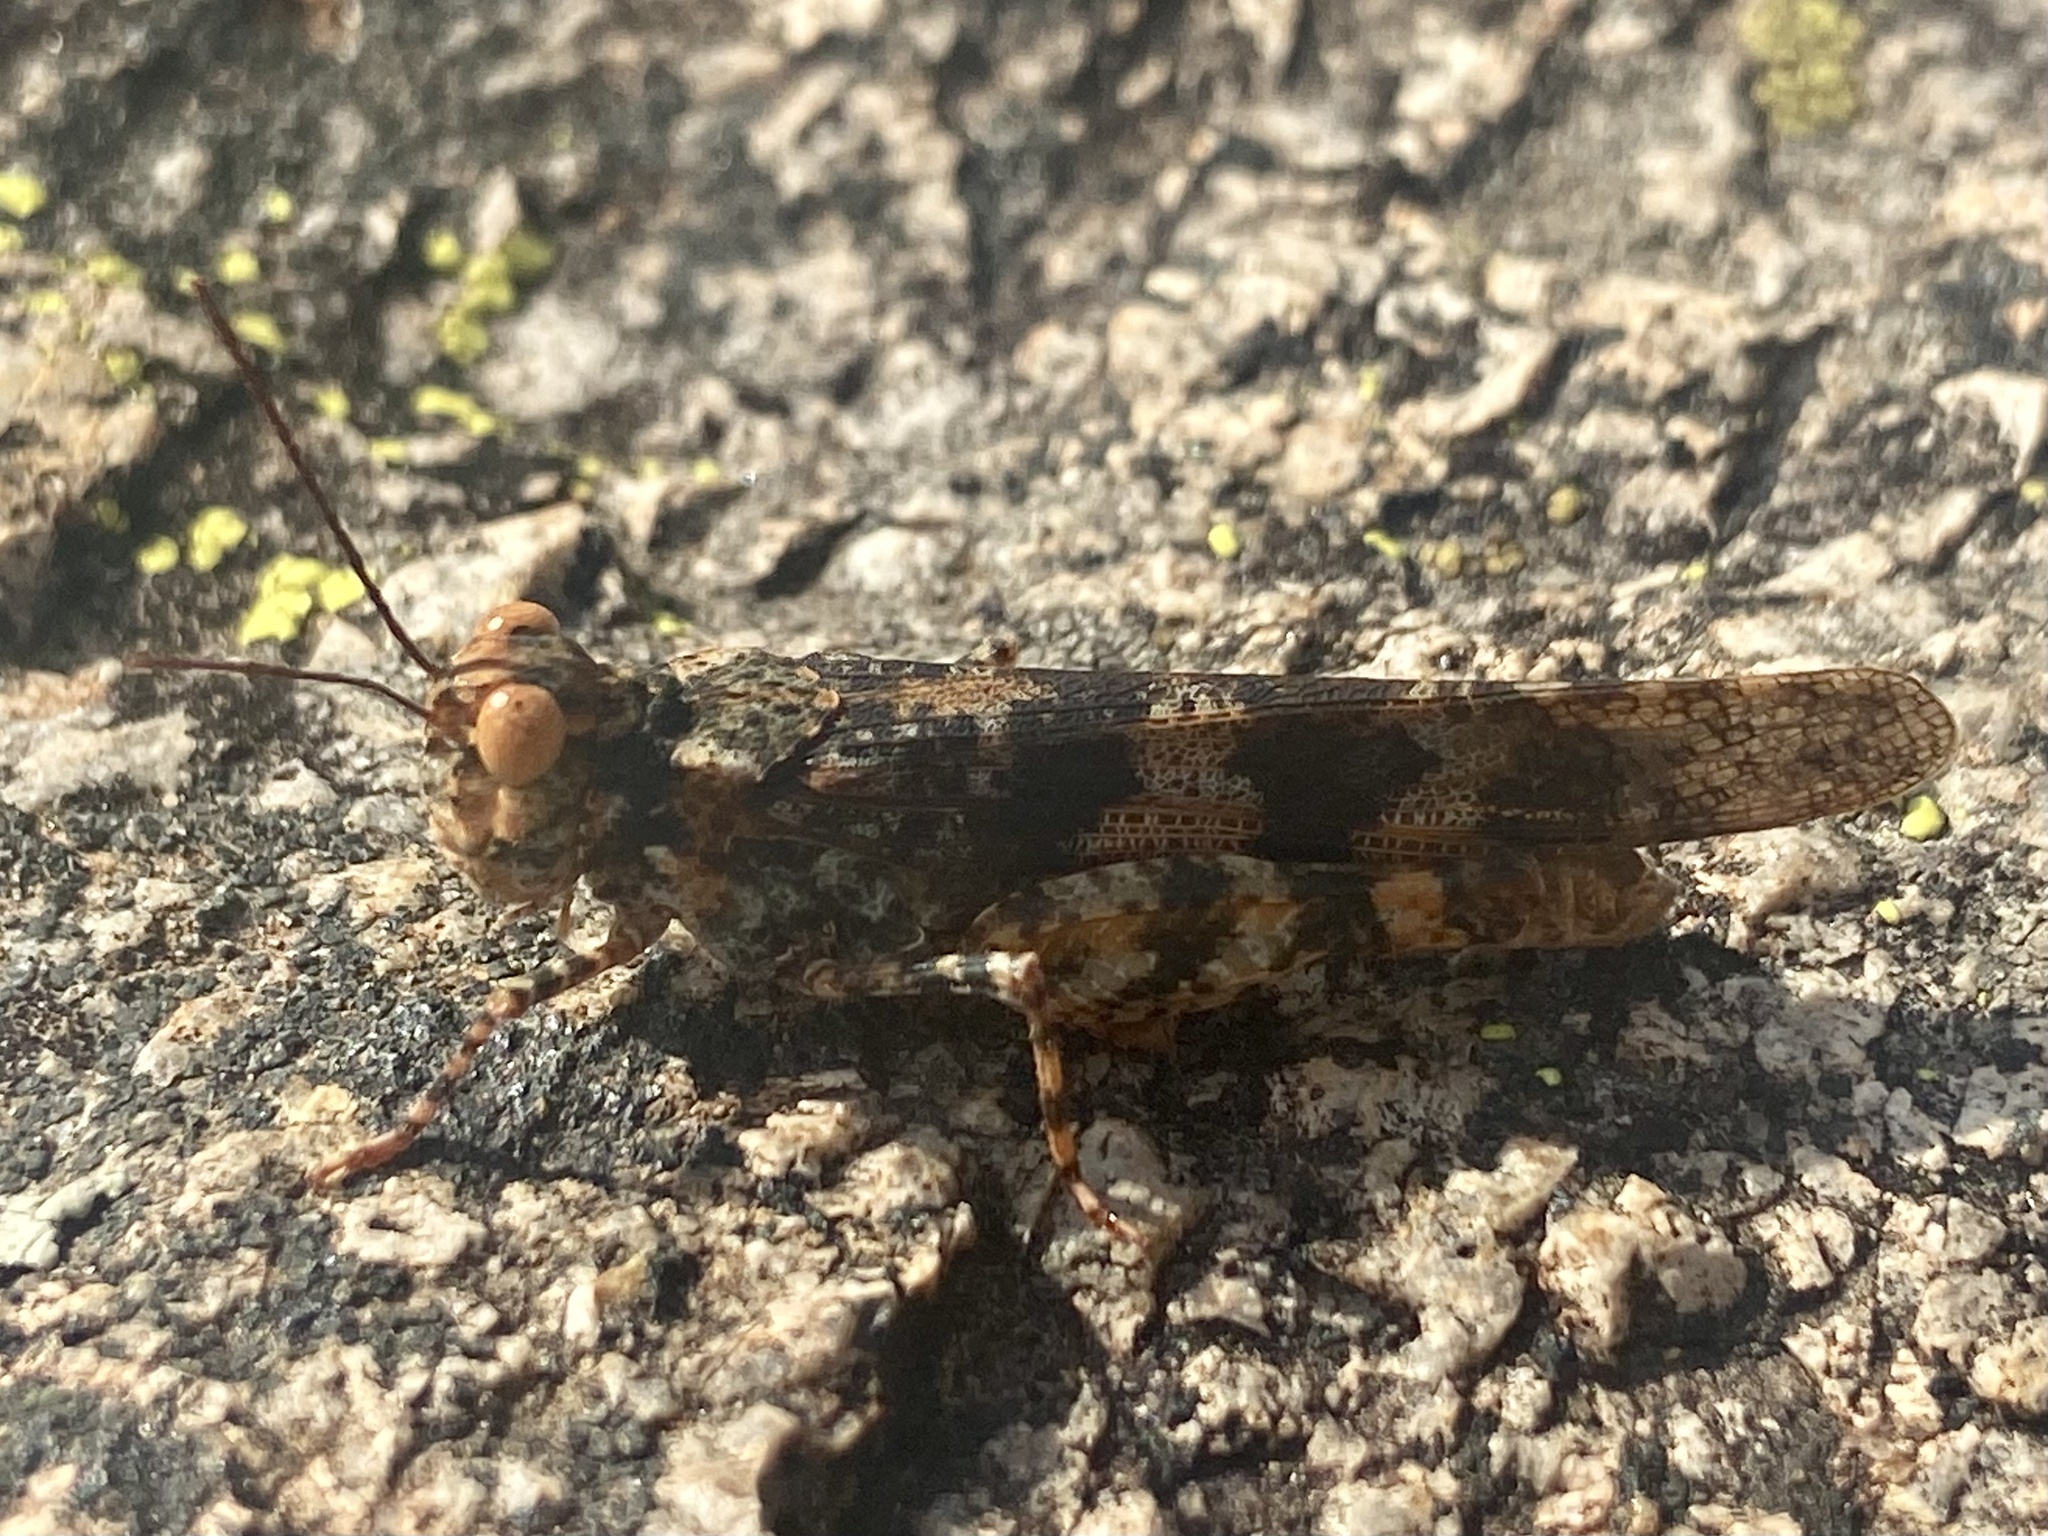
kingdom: Animalia
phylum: Arthropoda
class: Insecta
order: Orthoptera
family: Acrididae
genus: Trimerotropis
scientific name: Trimerotropis saxatilis
